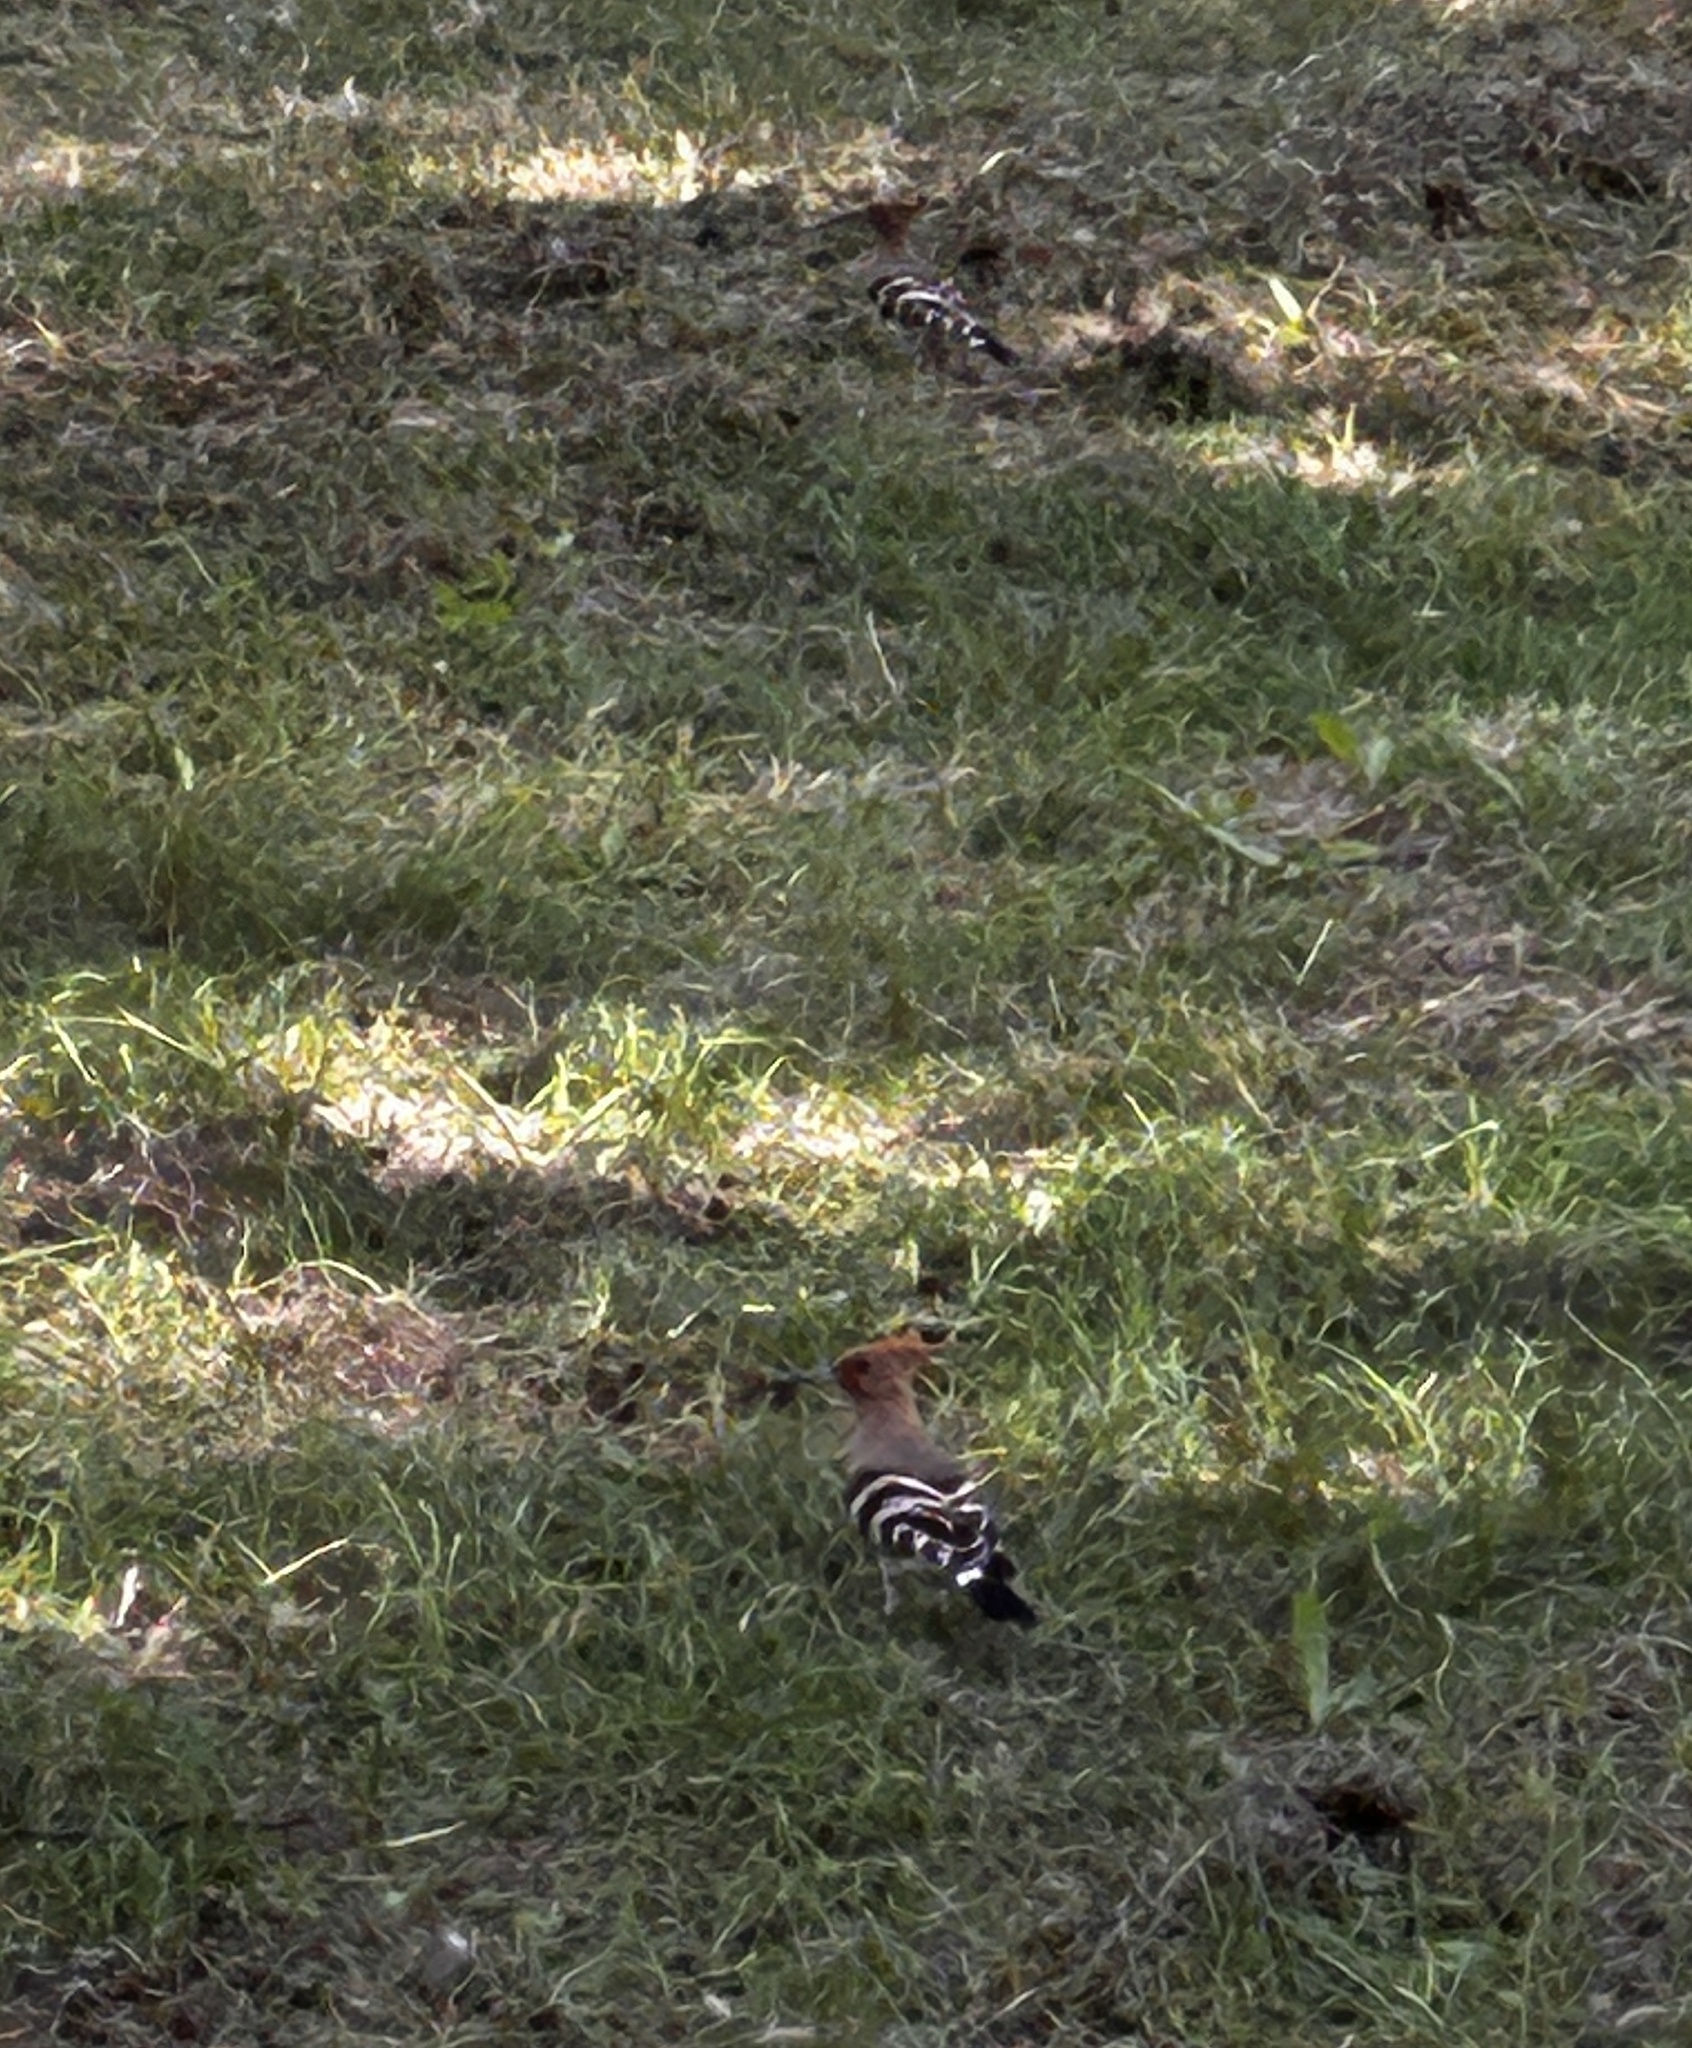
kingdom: Animalia
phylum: Chordata
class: Aves
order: Bucerotiformes
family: Upupidae
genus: Upupa
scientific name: Upupa epops
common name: Eurasian hoopoe
